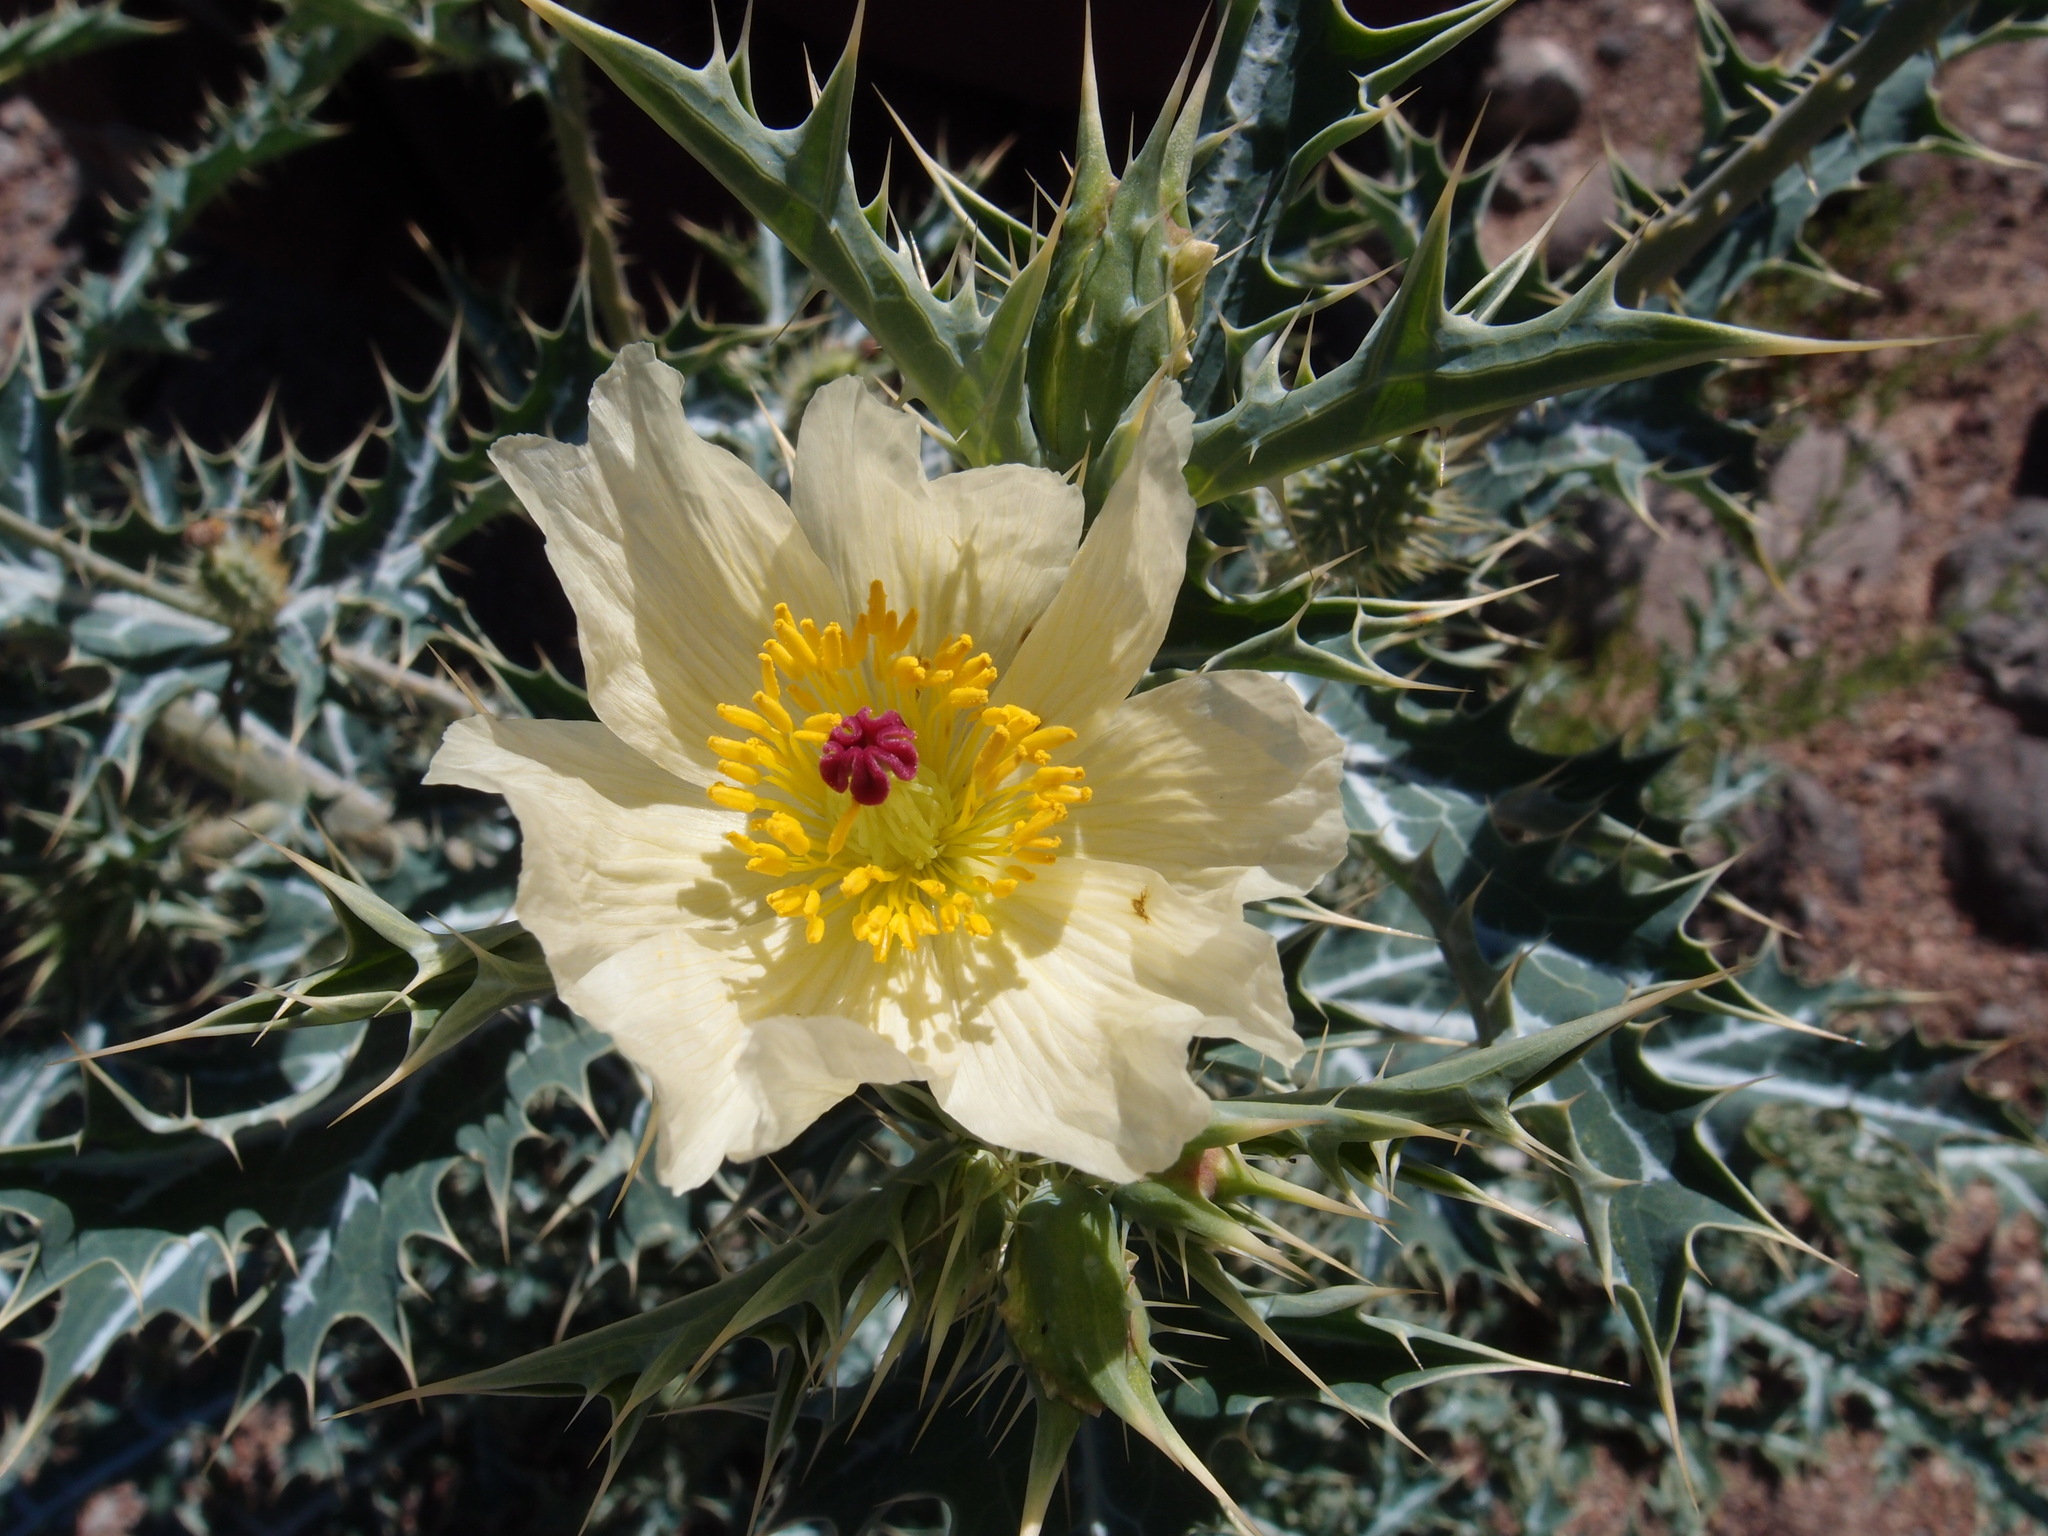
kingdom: Plantae
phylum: Tracheophyta
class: Magnoliopsida
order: Ranunculales
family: Papaveraceae
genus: Argemone
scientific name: Argemone ochroleuca
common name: White-flower mexican-poppy
